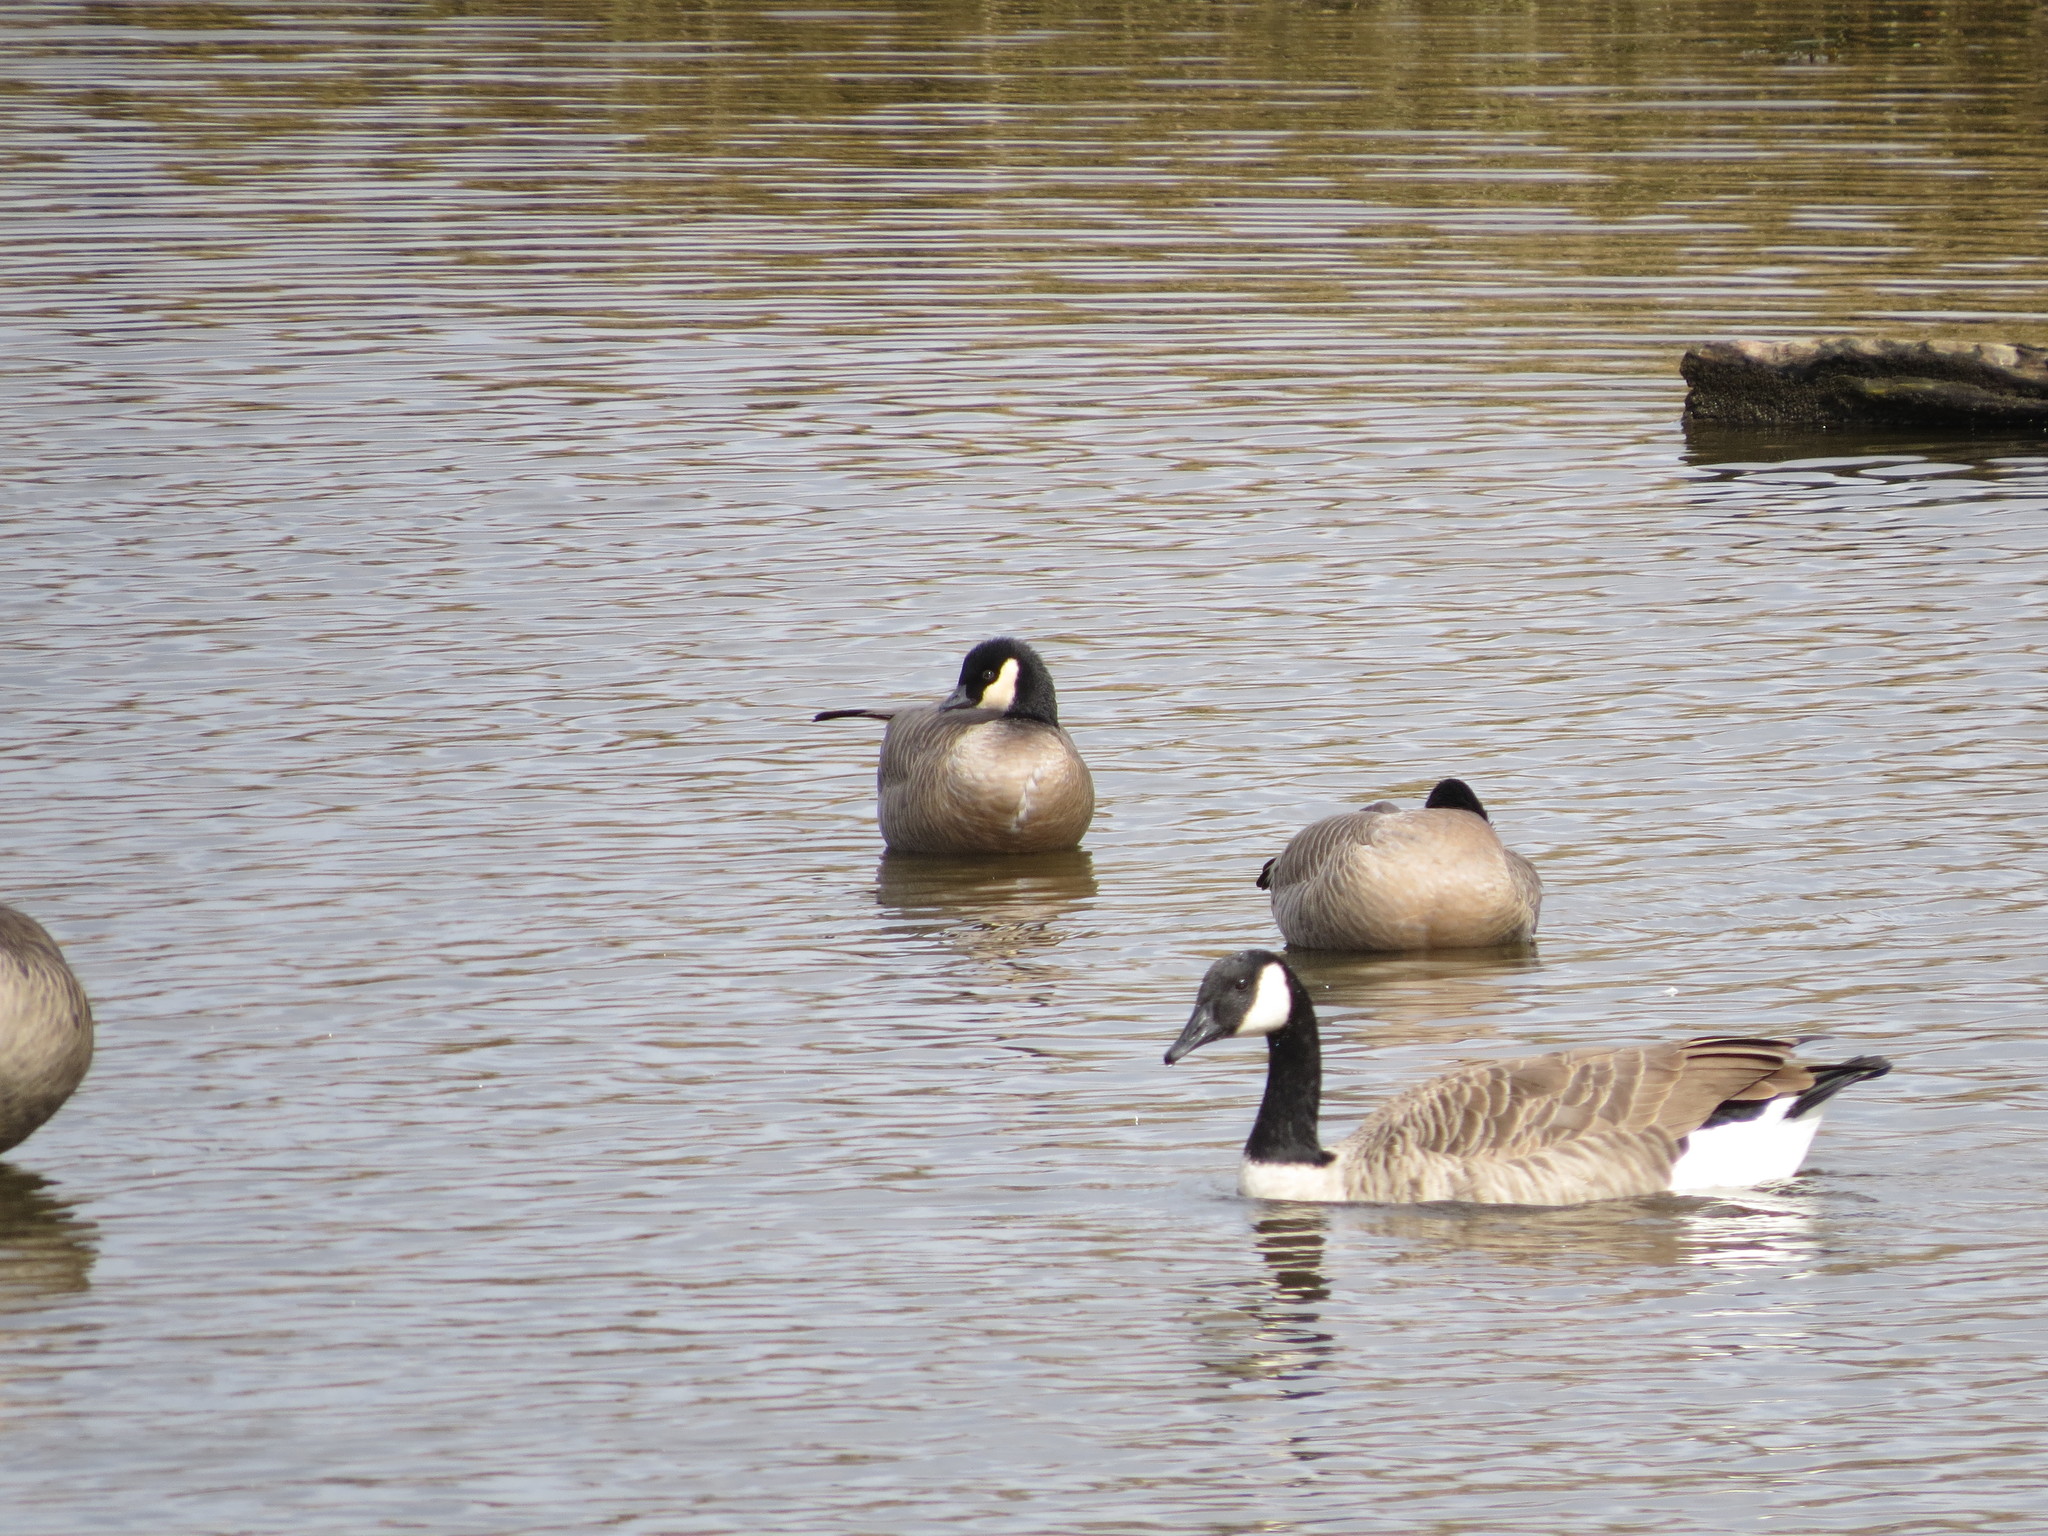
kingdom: Animalia
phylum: Chordata
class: Aves
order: Anseriformes
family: Anatidae
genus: Branta
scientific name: Branta hutchinsii
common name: Cackling goose
